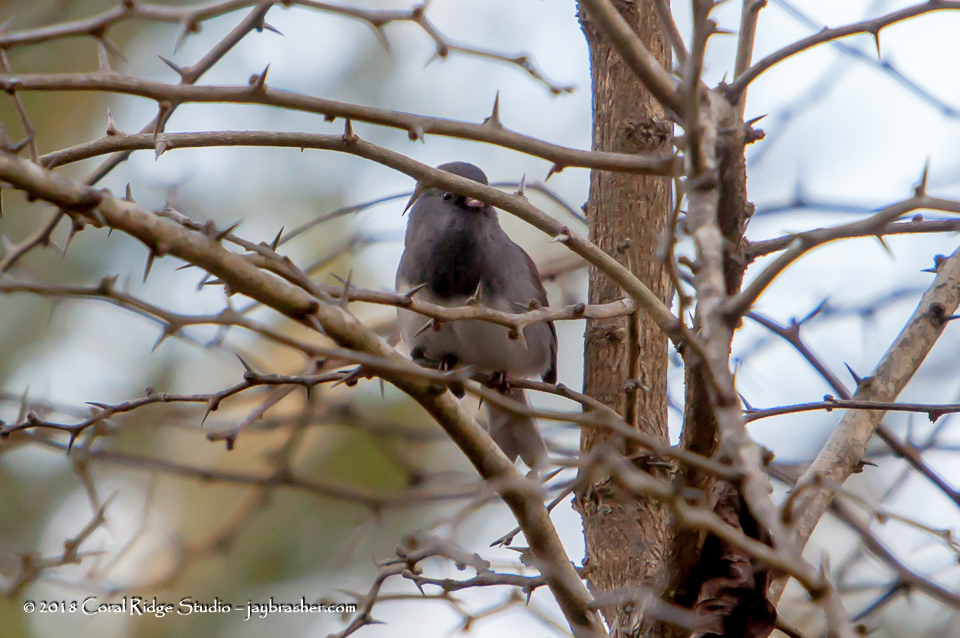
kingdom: Animalia
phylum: Chordata
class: Aves
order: Passeriformes
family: Passerellidae
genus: Junco
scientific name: Junco hyemalis
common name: Dark-eyed junco
